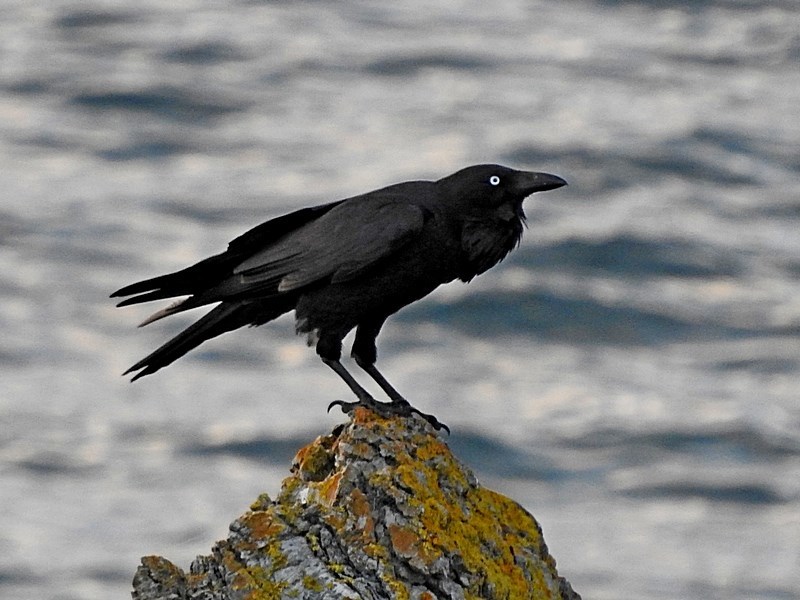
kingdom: Animalia
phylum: Chordata
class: Aves
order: Passeriformes
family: Corvidae
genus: Corvus
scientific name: Corvus coronoides
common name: Australian raven
